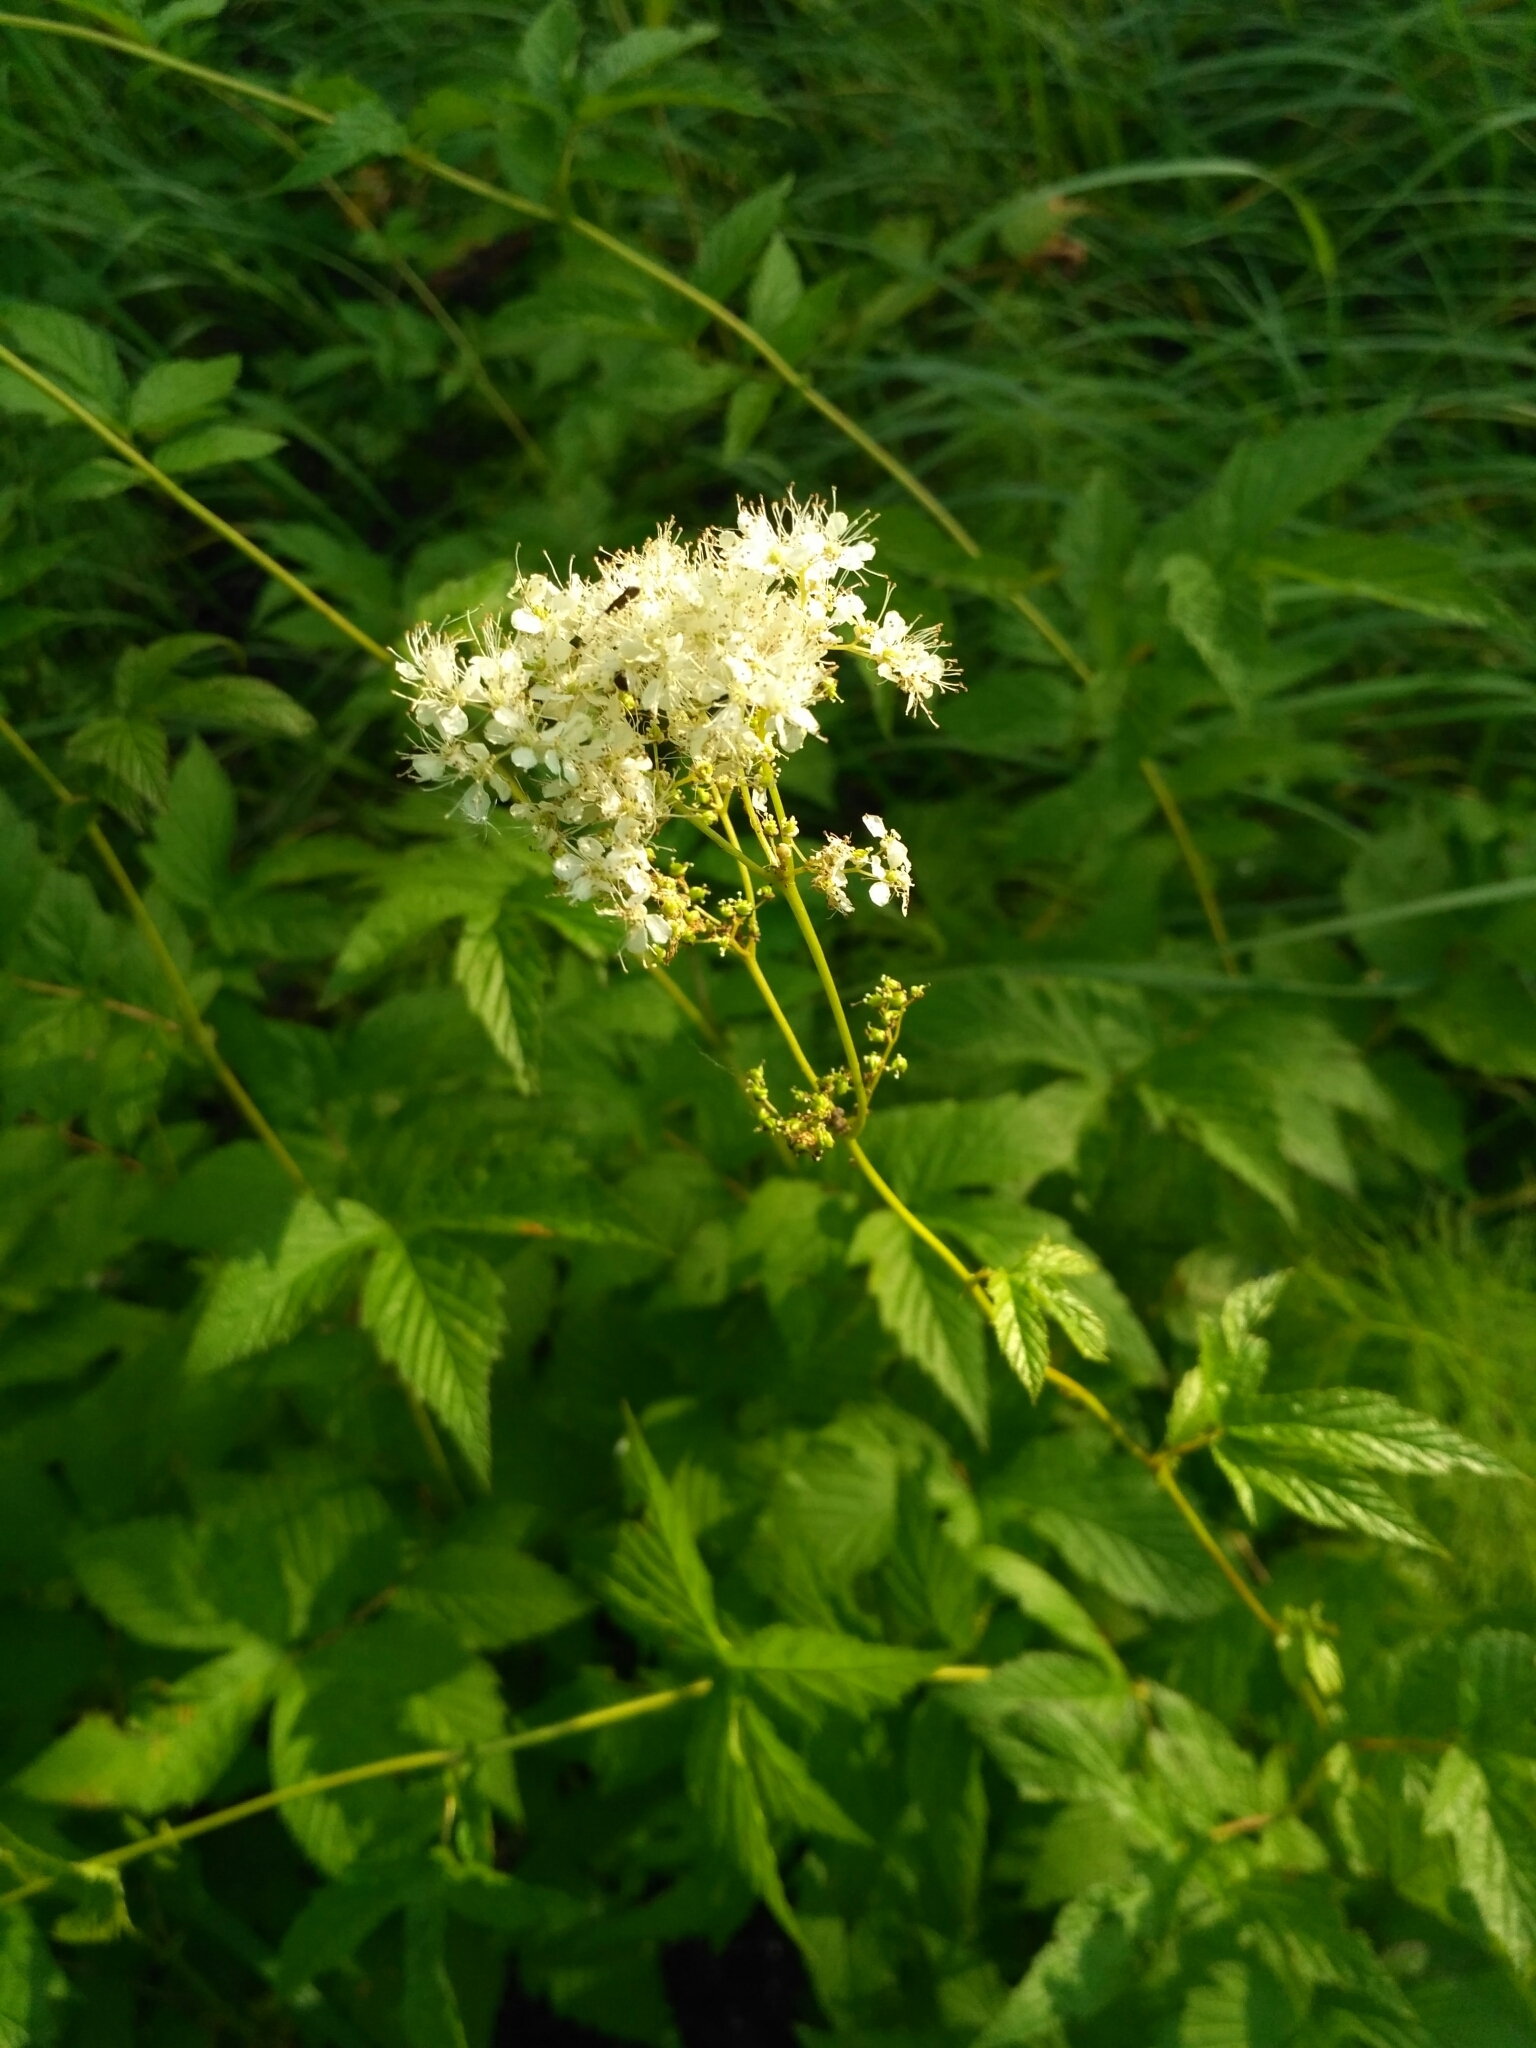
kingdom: Plantae
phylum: Tracheophyta
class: Magnoliopsida
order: Rosales
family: Rosaceae
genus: Filipendula
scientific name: Filipendula ulmaria
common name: Meadowsweet
